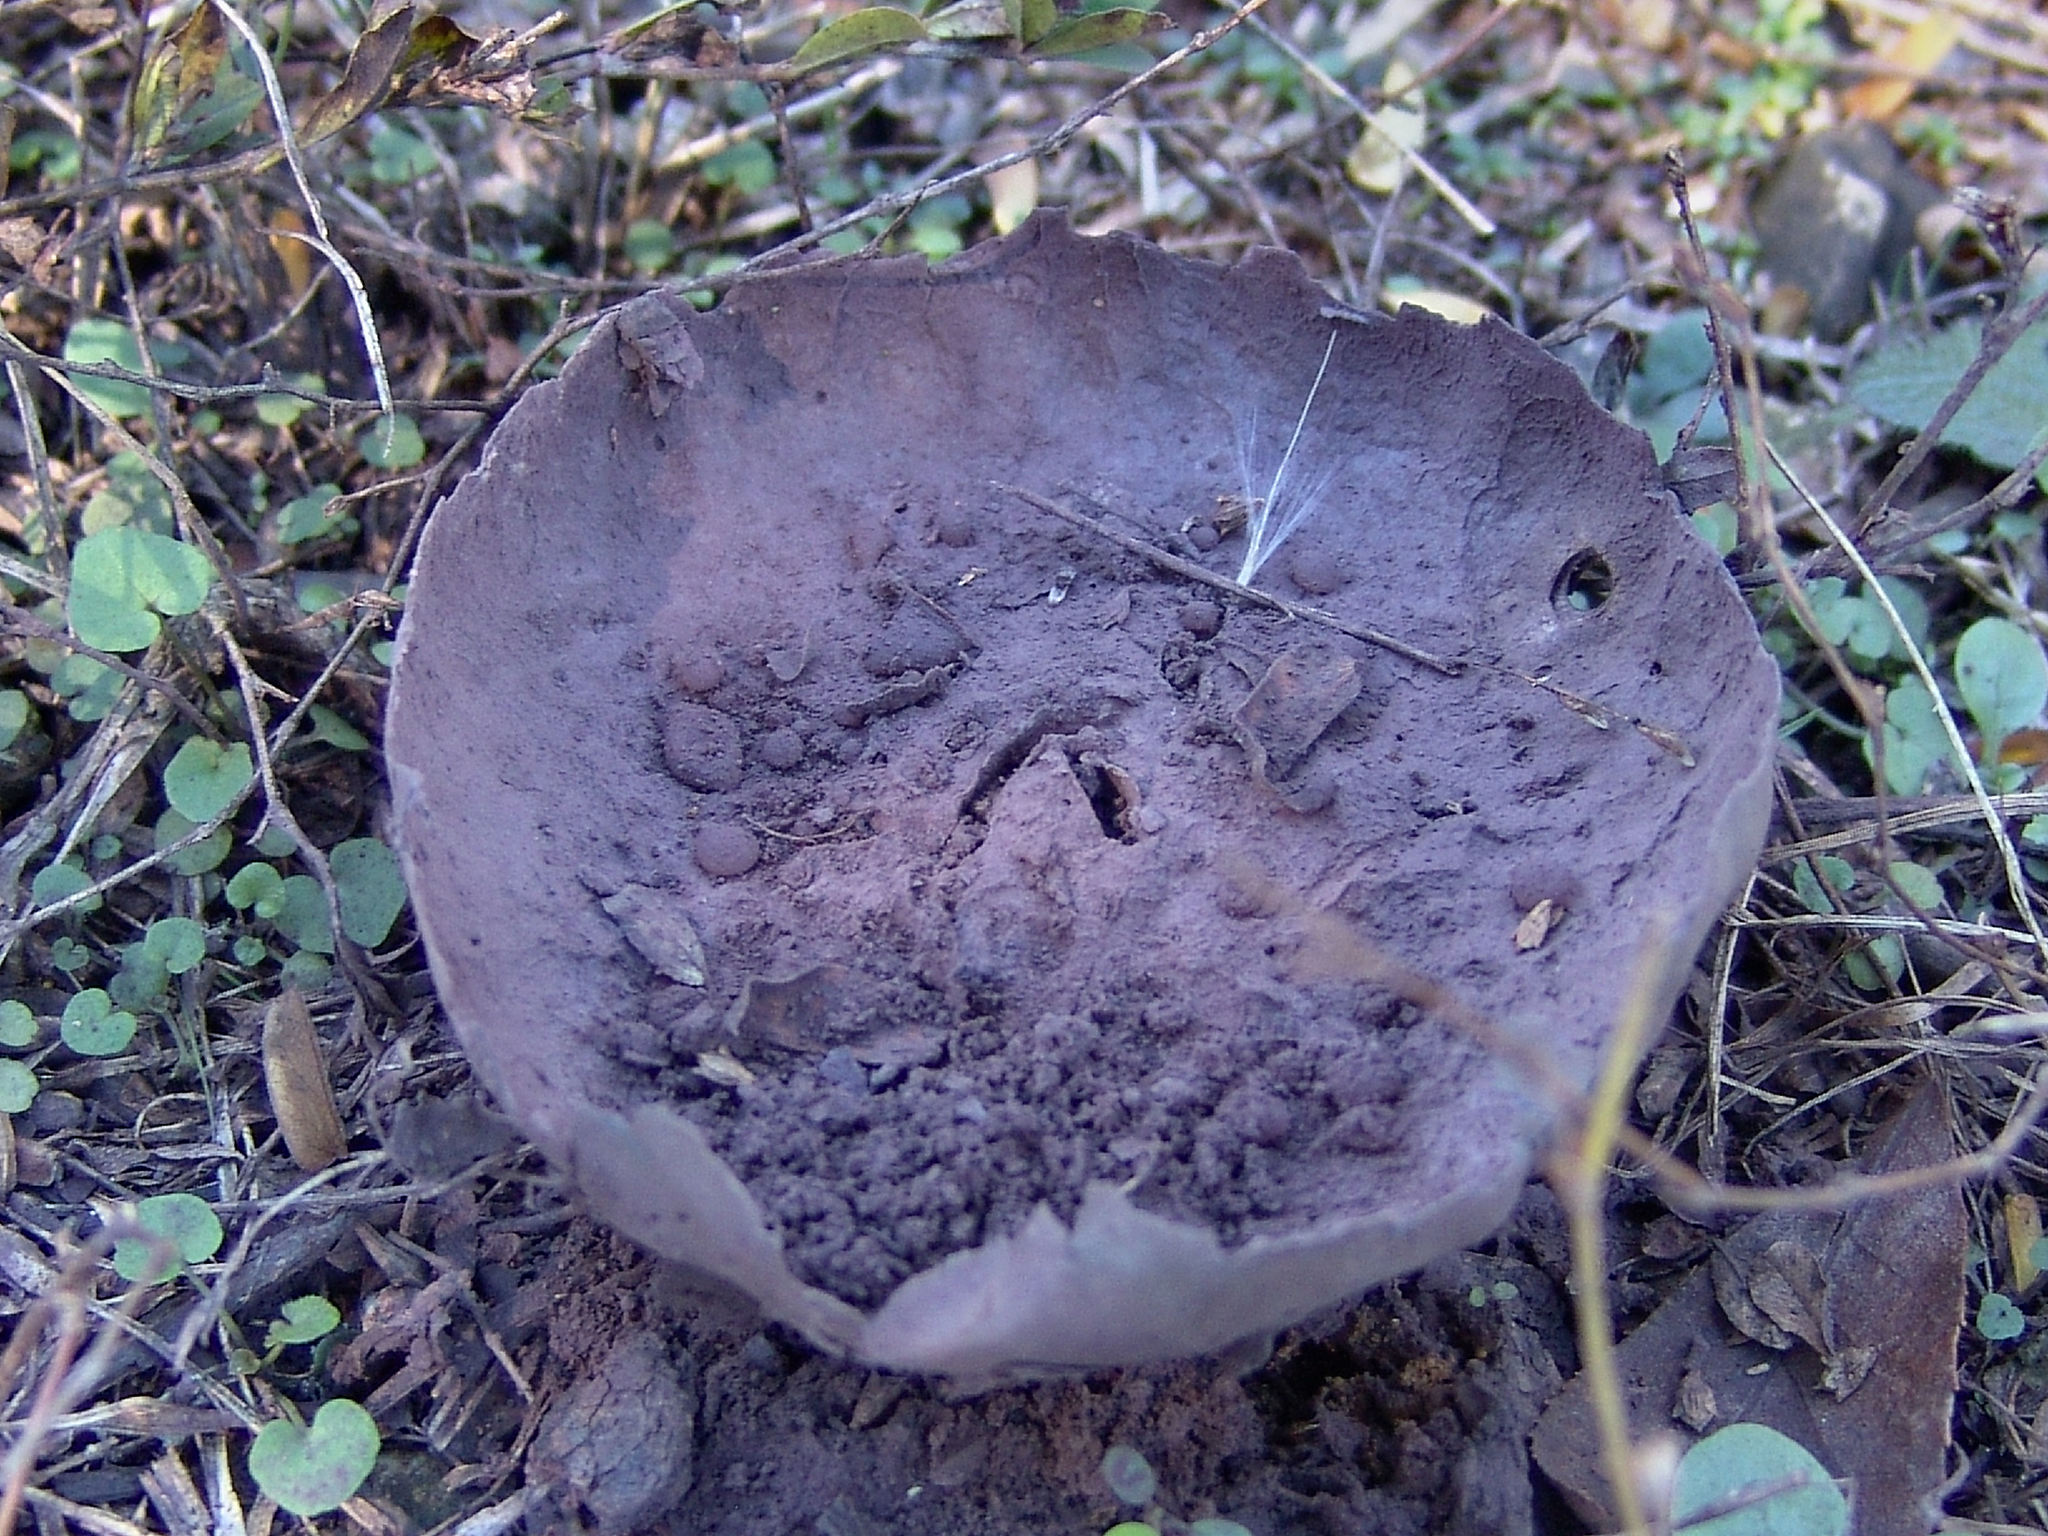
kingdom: Fungi
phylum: Basidiomycota
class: Agaricomycetes
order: Agaricales
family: Lycoperdaceae
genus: Calvatia
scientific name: Calvatia cyathiformis
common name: Purple-spored puffball
